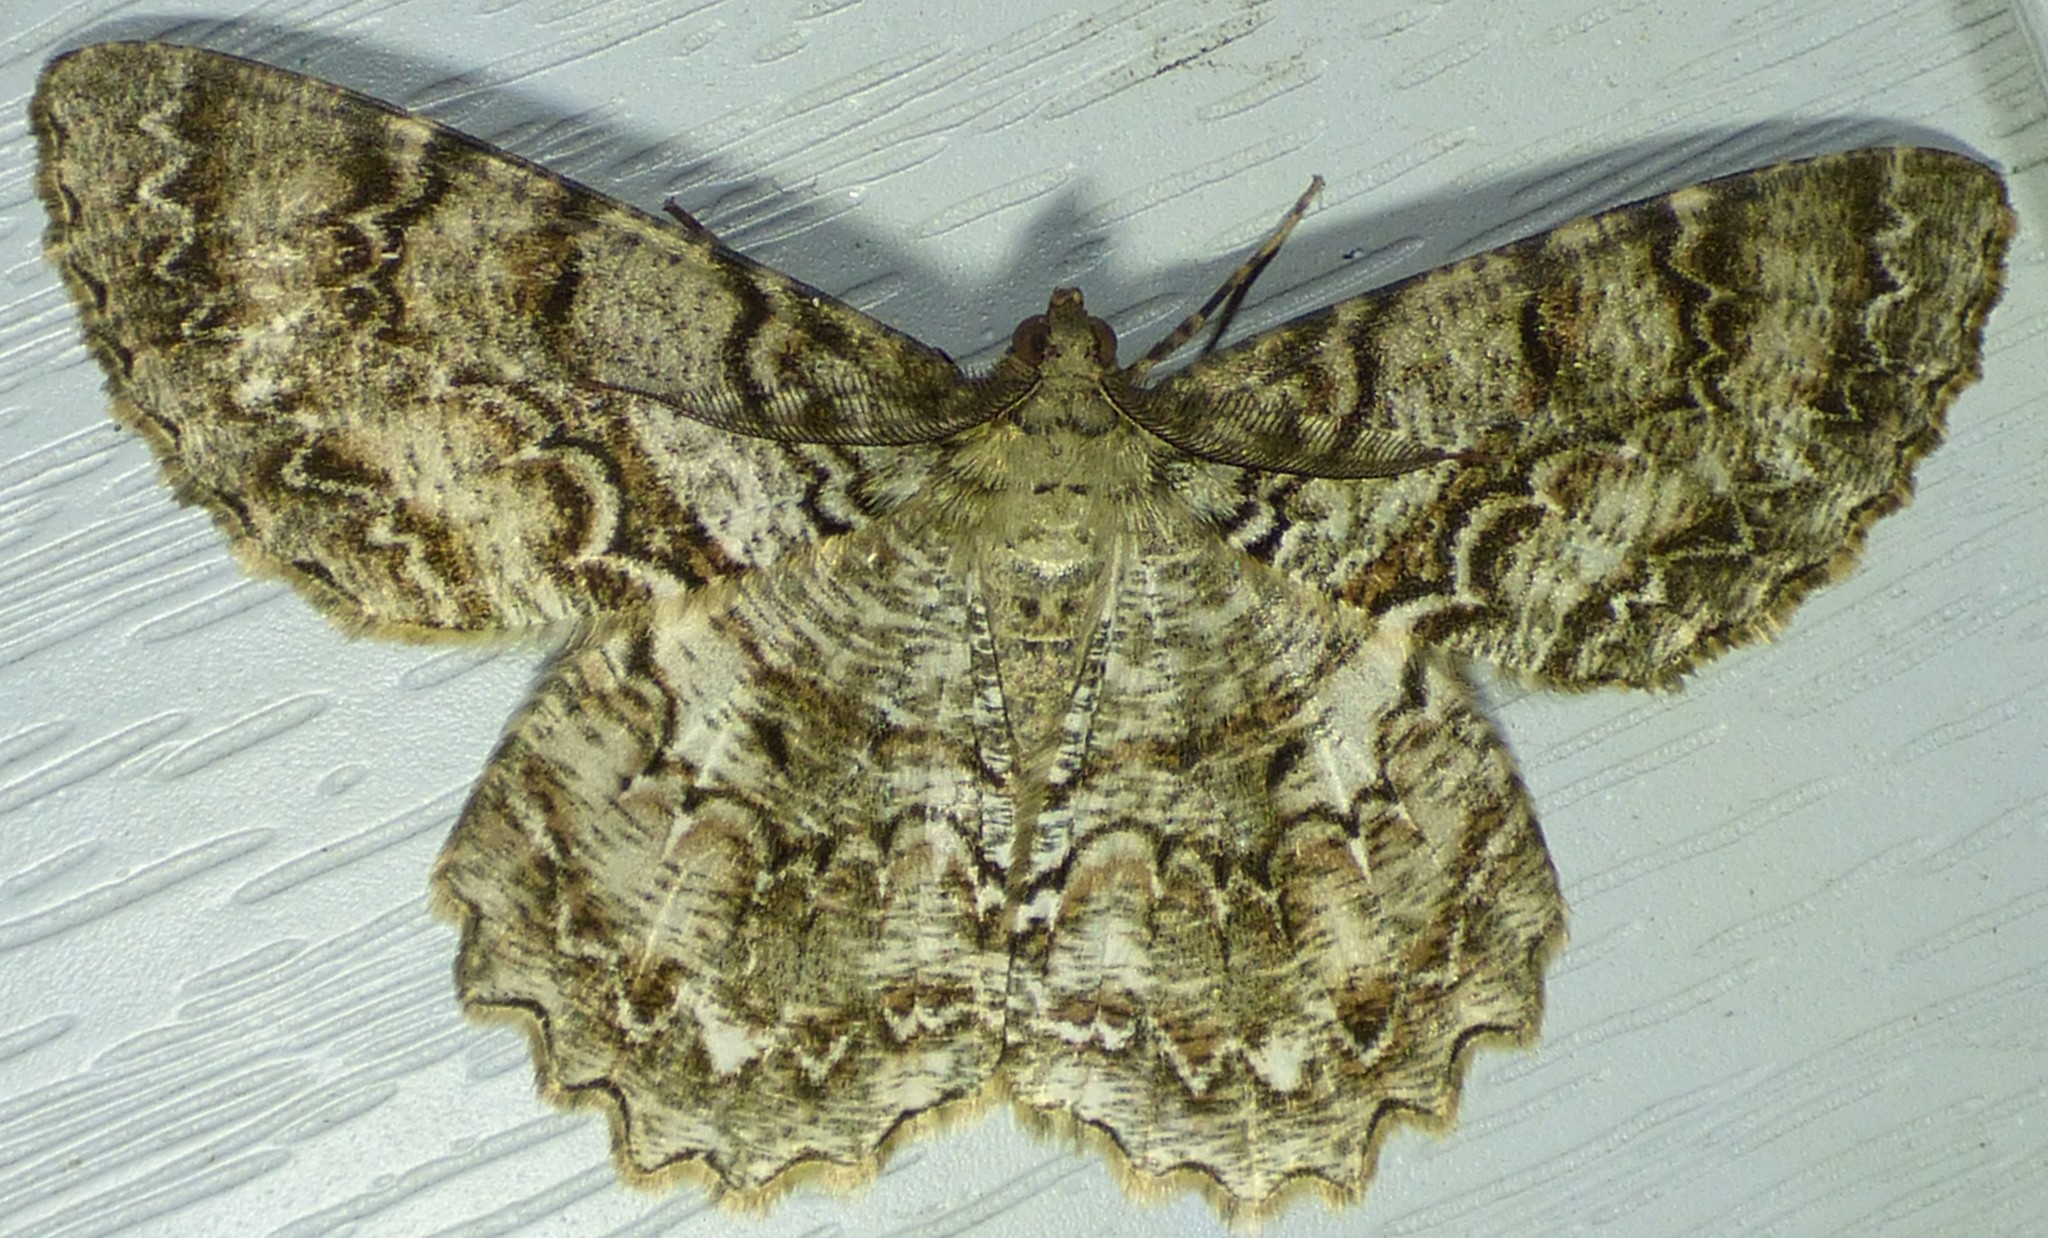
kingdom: Animalia
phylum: Arthropoda
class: Insecta
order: Lepidoptera
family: Geometridae
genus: Epimecis
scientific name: Epimecis hortaria
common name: Tulip-tree beauty
